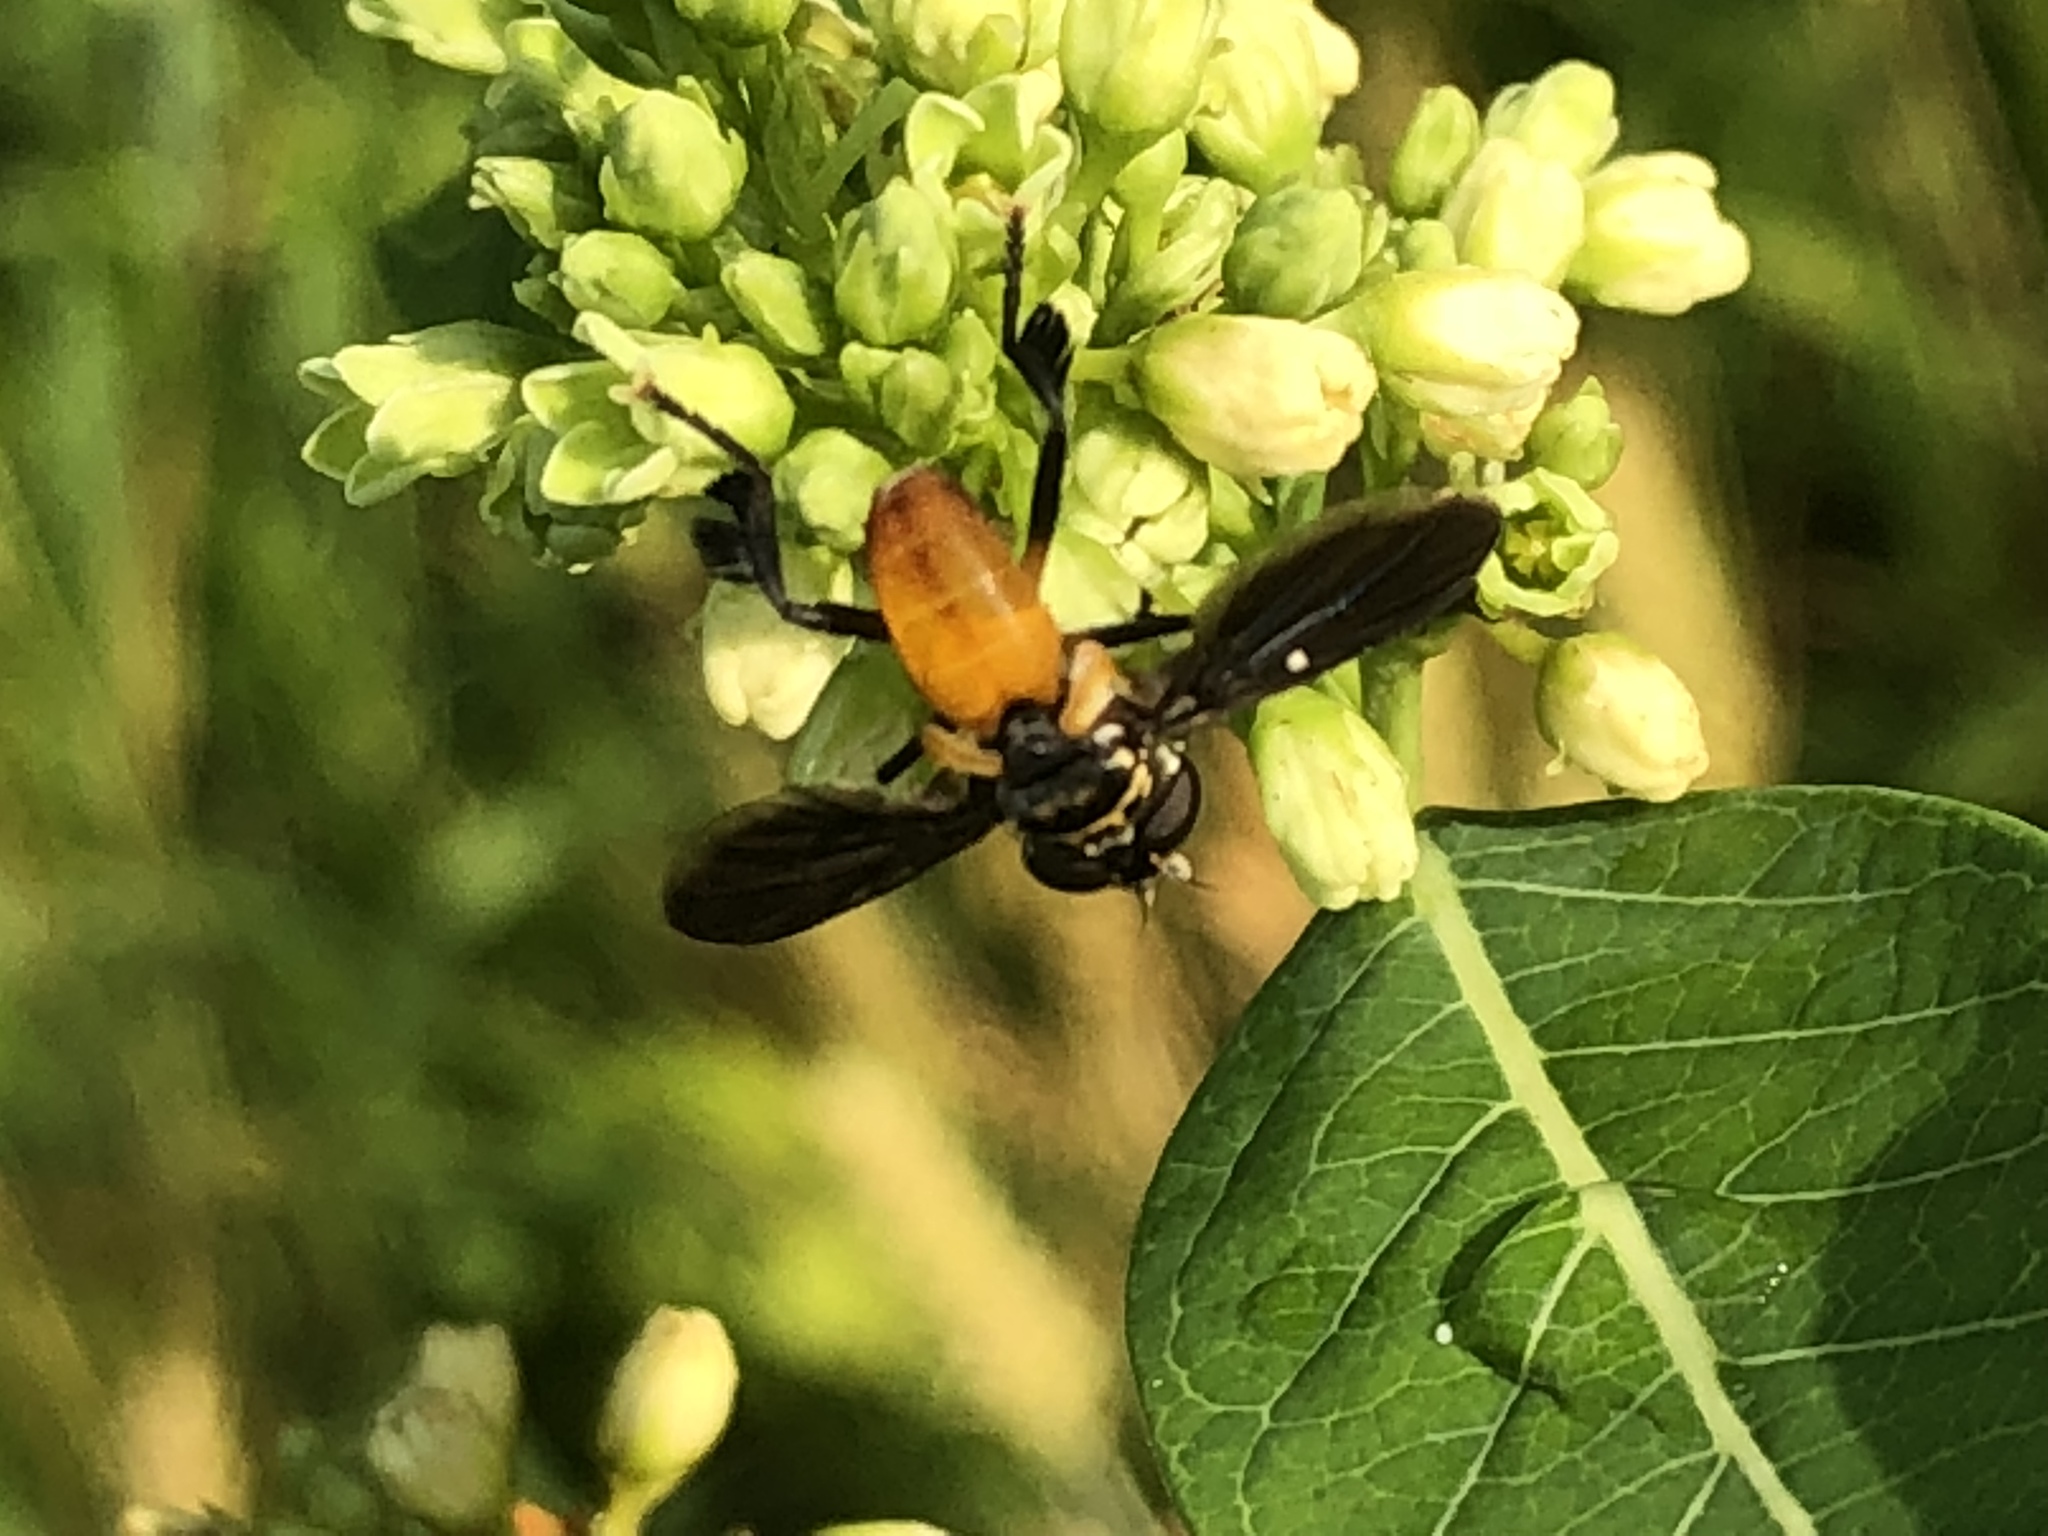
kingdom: Animalia
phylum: Arthropoda
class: Insecta
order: Diptera
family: Tachinidae
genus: Trichopoda
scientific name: Trichopoda pennipes
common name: Tachinid fly
